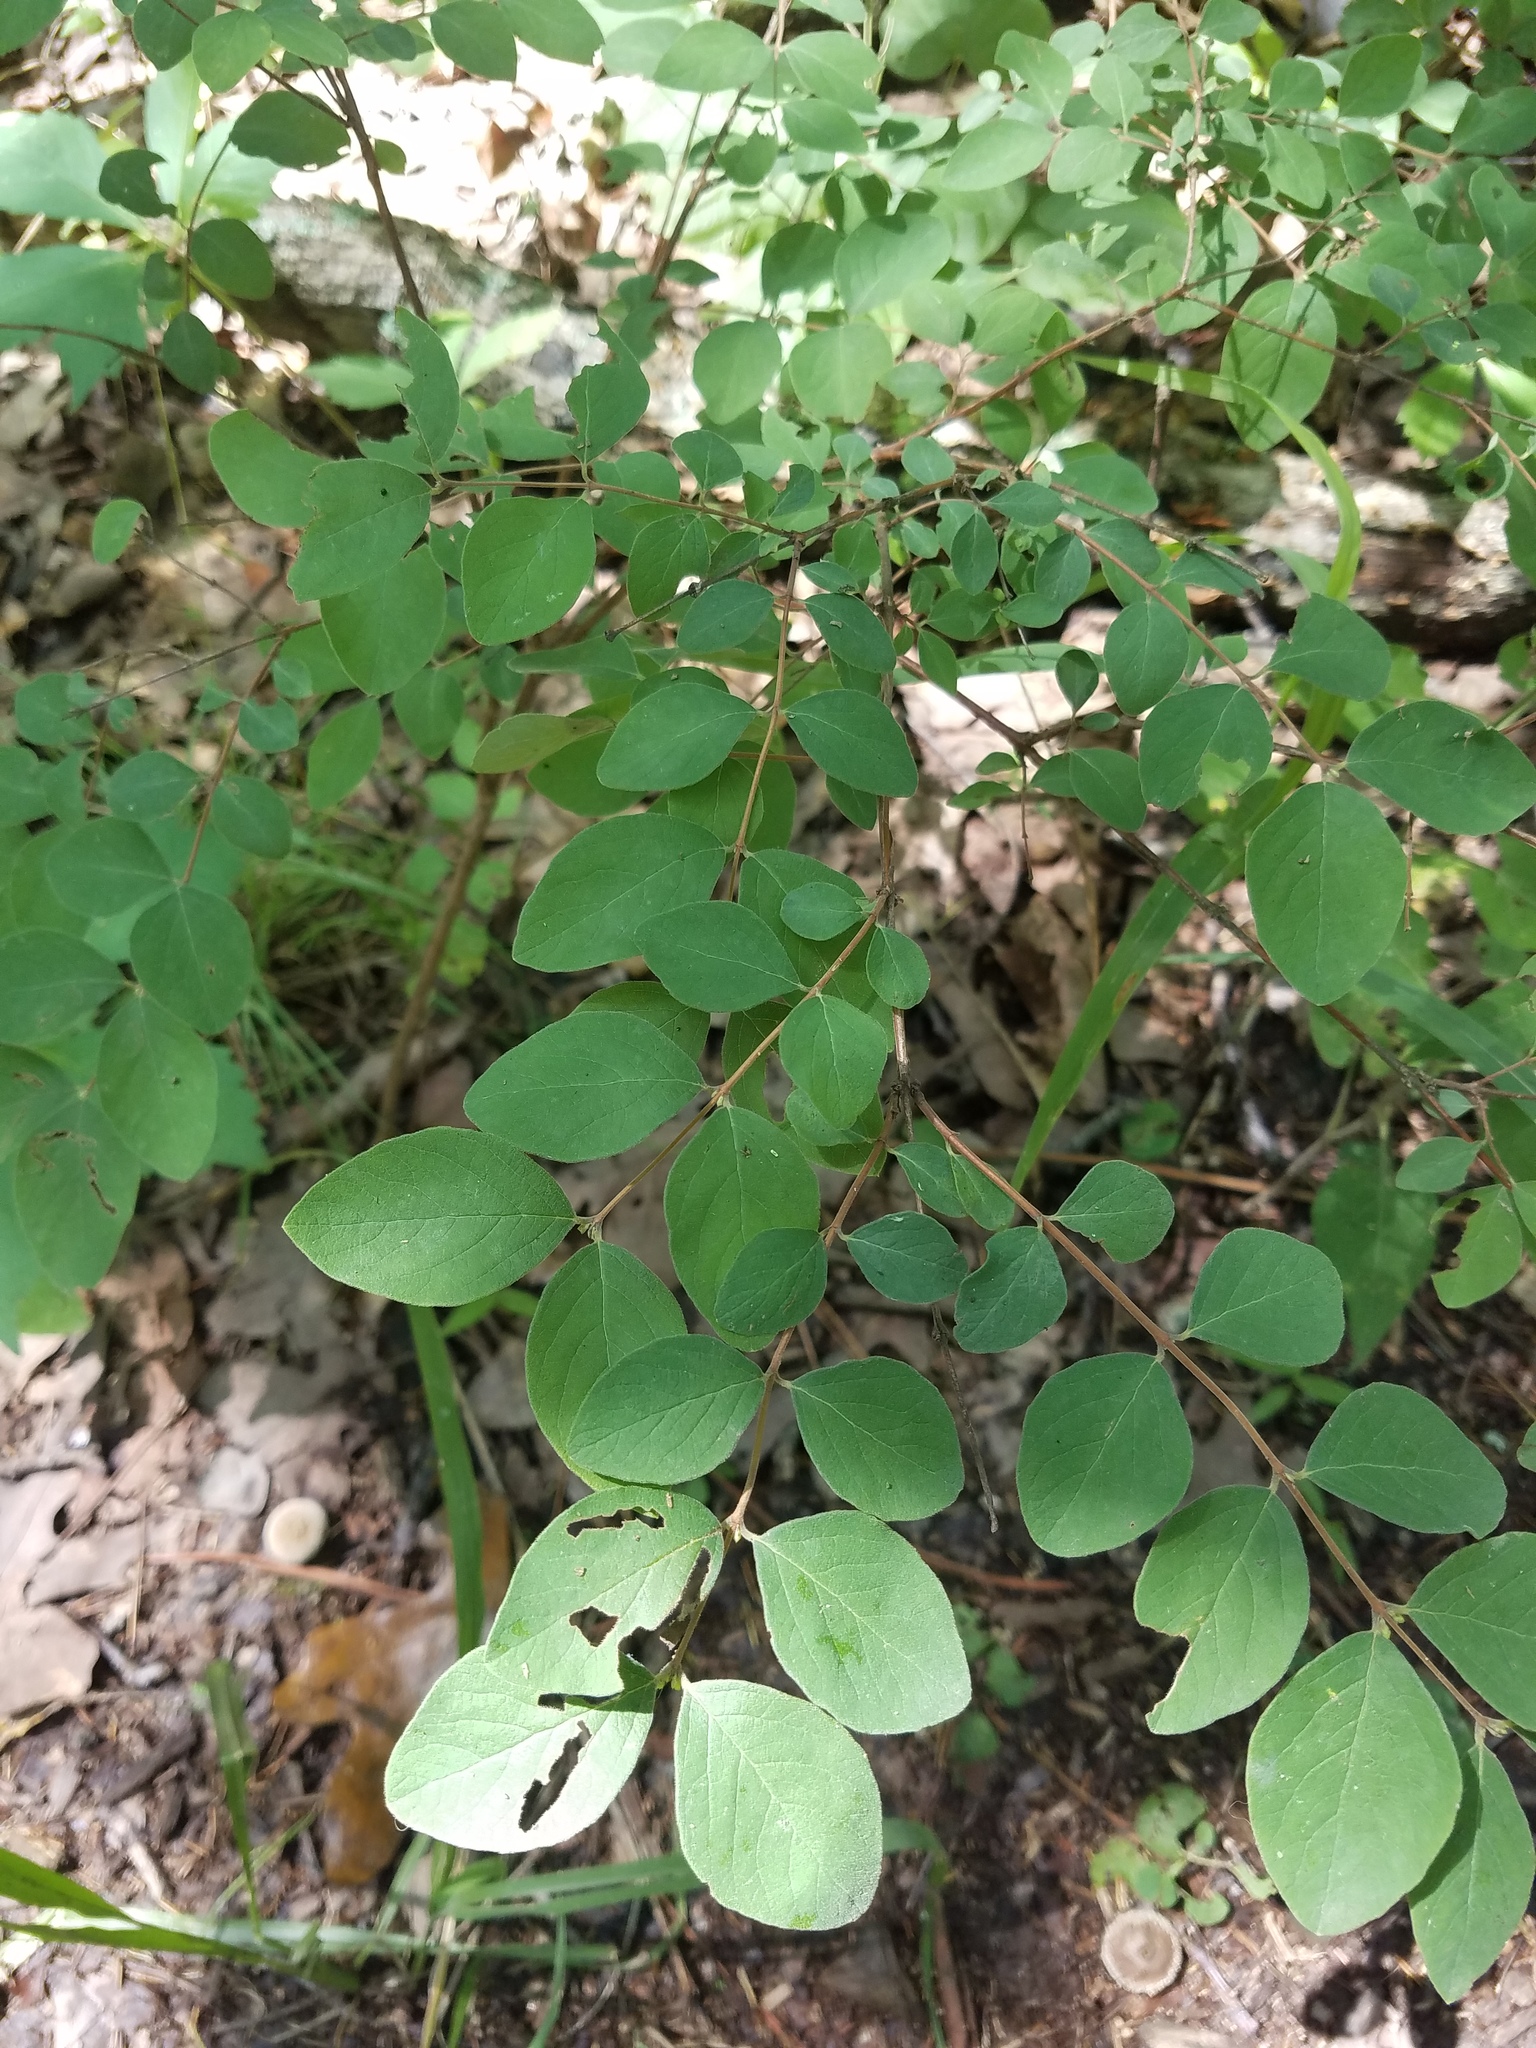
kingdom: Plantae
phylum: Tracheophyta
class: Magnoliopsida
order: Dipsacales
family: Caprifoliaceae
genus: Symphoricarpos
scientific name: Symphoricarpos orbiculatus
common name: Coralberry
